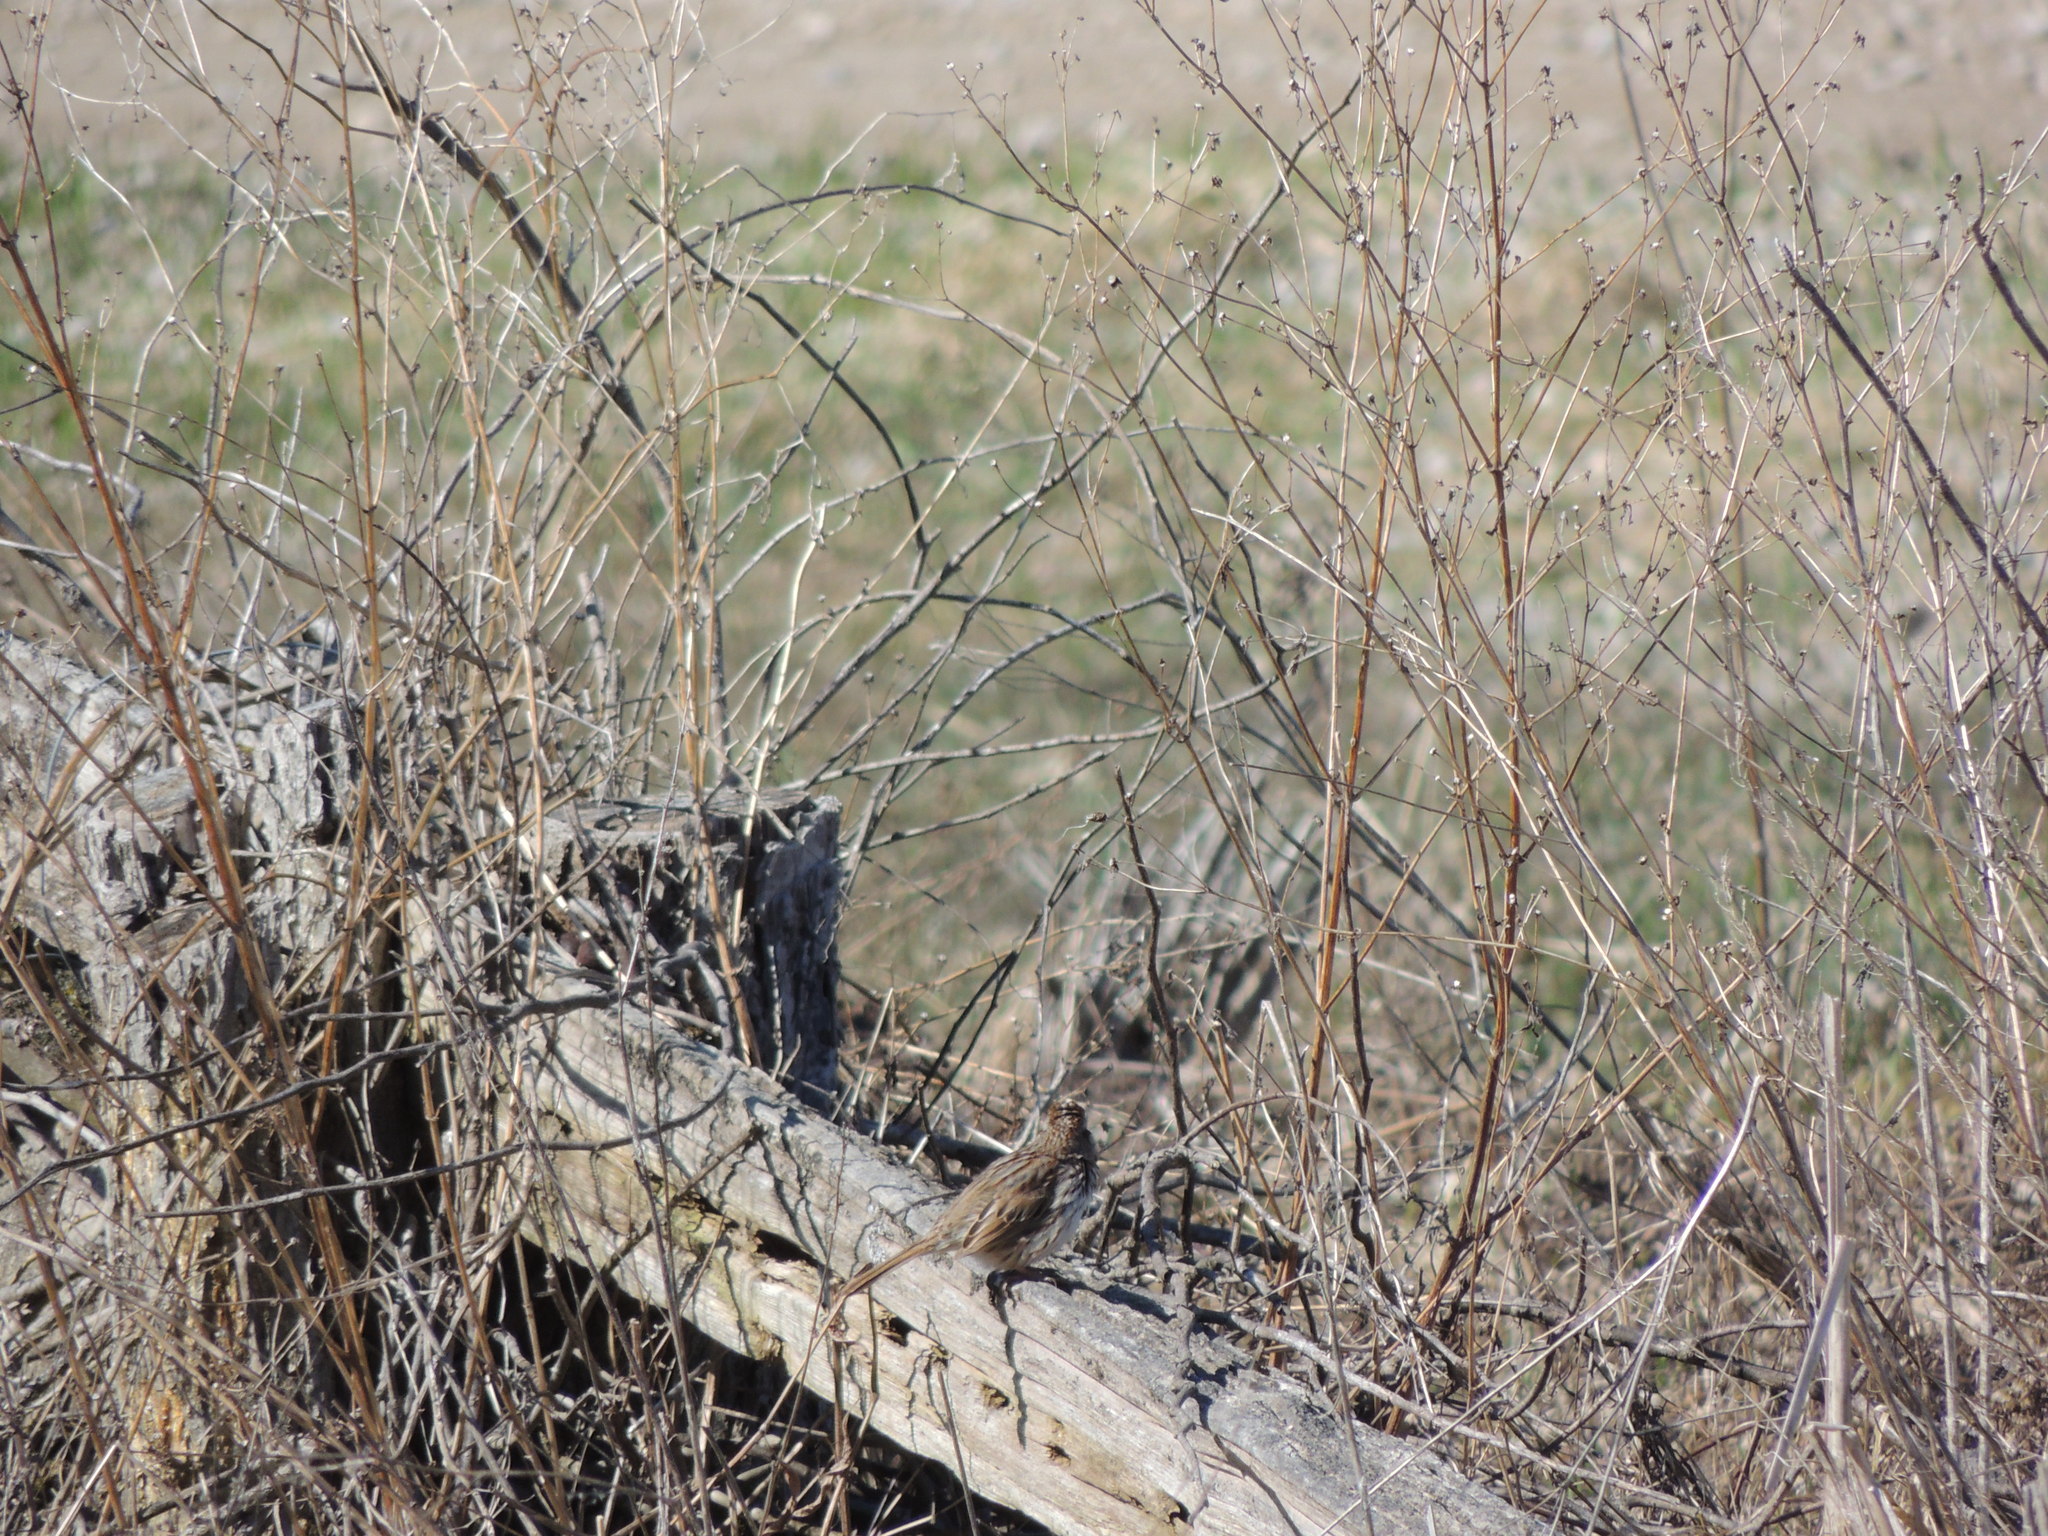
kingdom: Animalia
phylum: Chordata
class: Aves
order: Passeriformes
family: Passerellidae
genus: Melospiza
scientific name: Melospiza melodia
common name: Song sparrow
